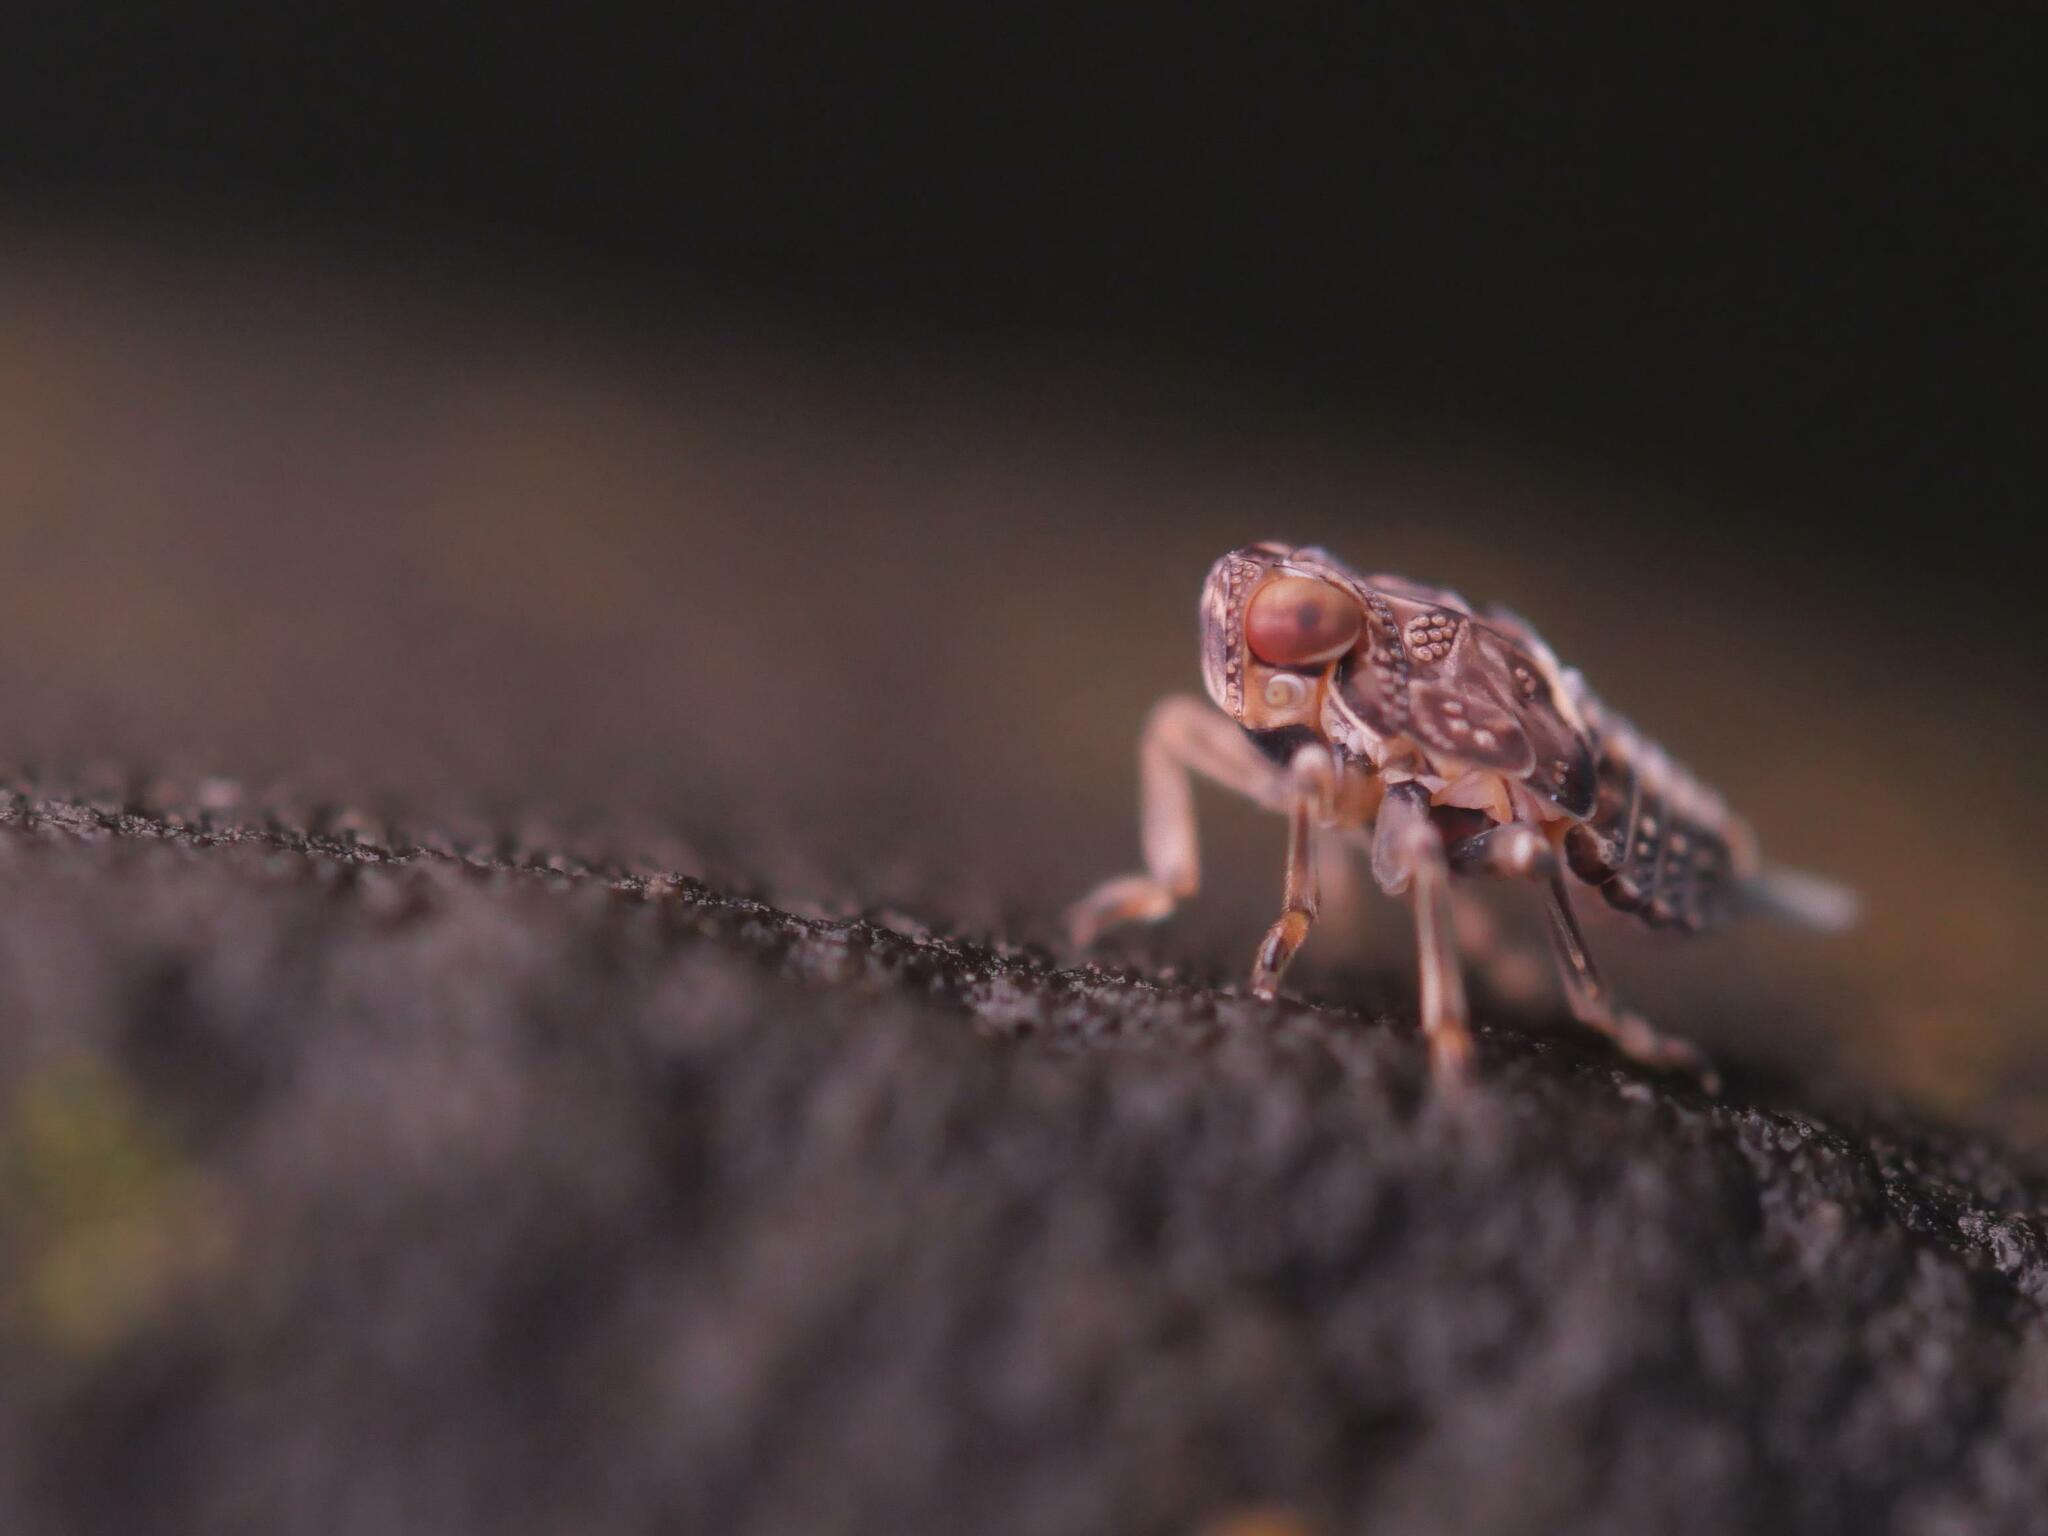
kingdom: Animalia
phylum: Arthropoda
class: Insecta
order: Hemiptera
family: Issidae
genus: Issus
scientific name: Issus coleoptratus
